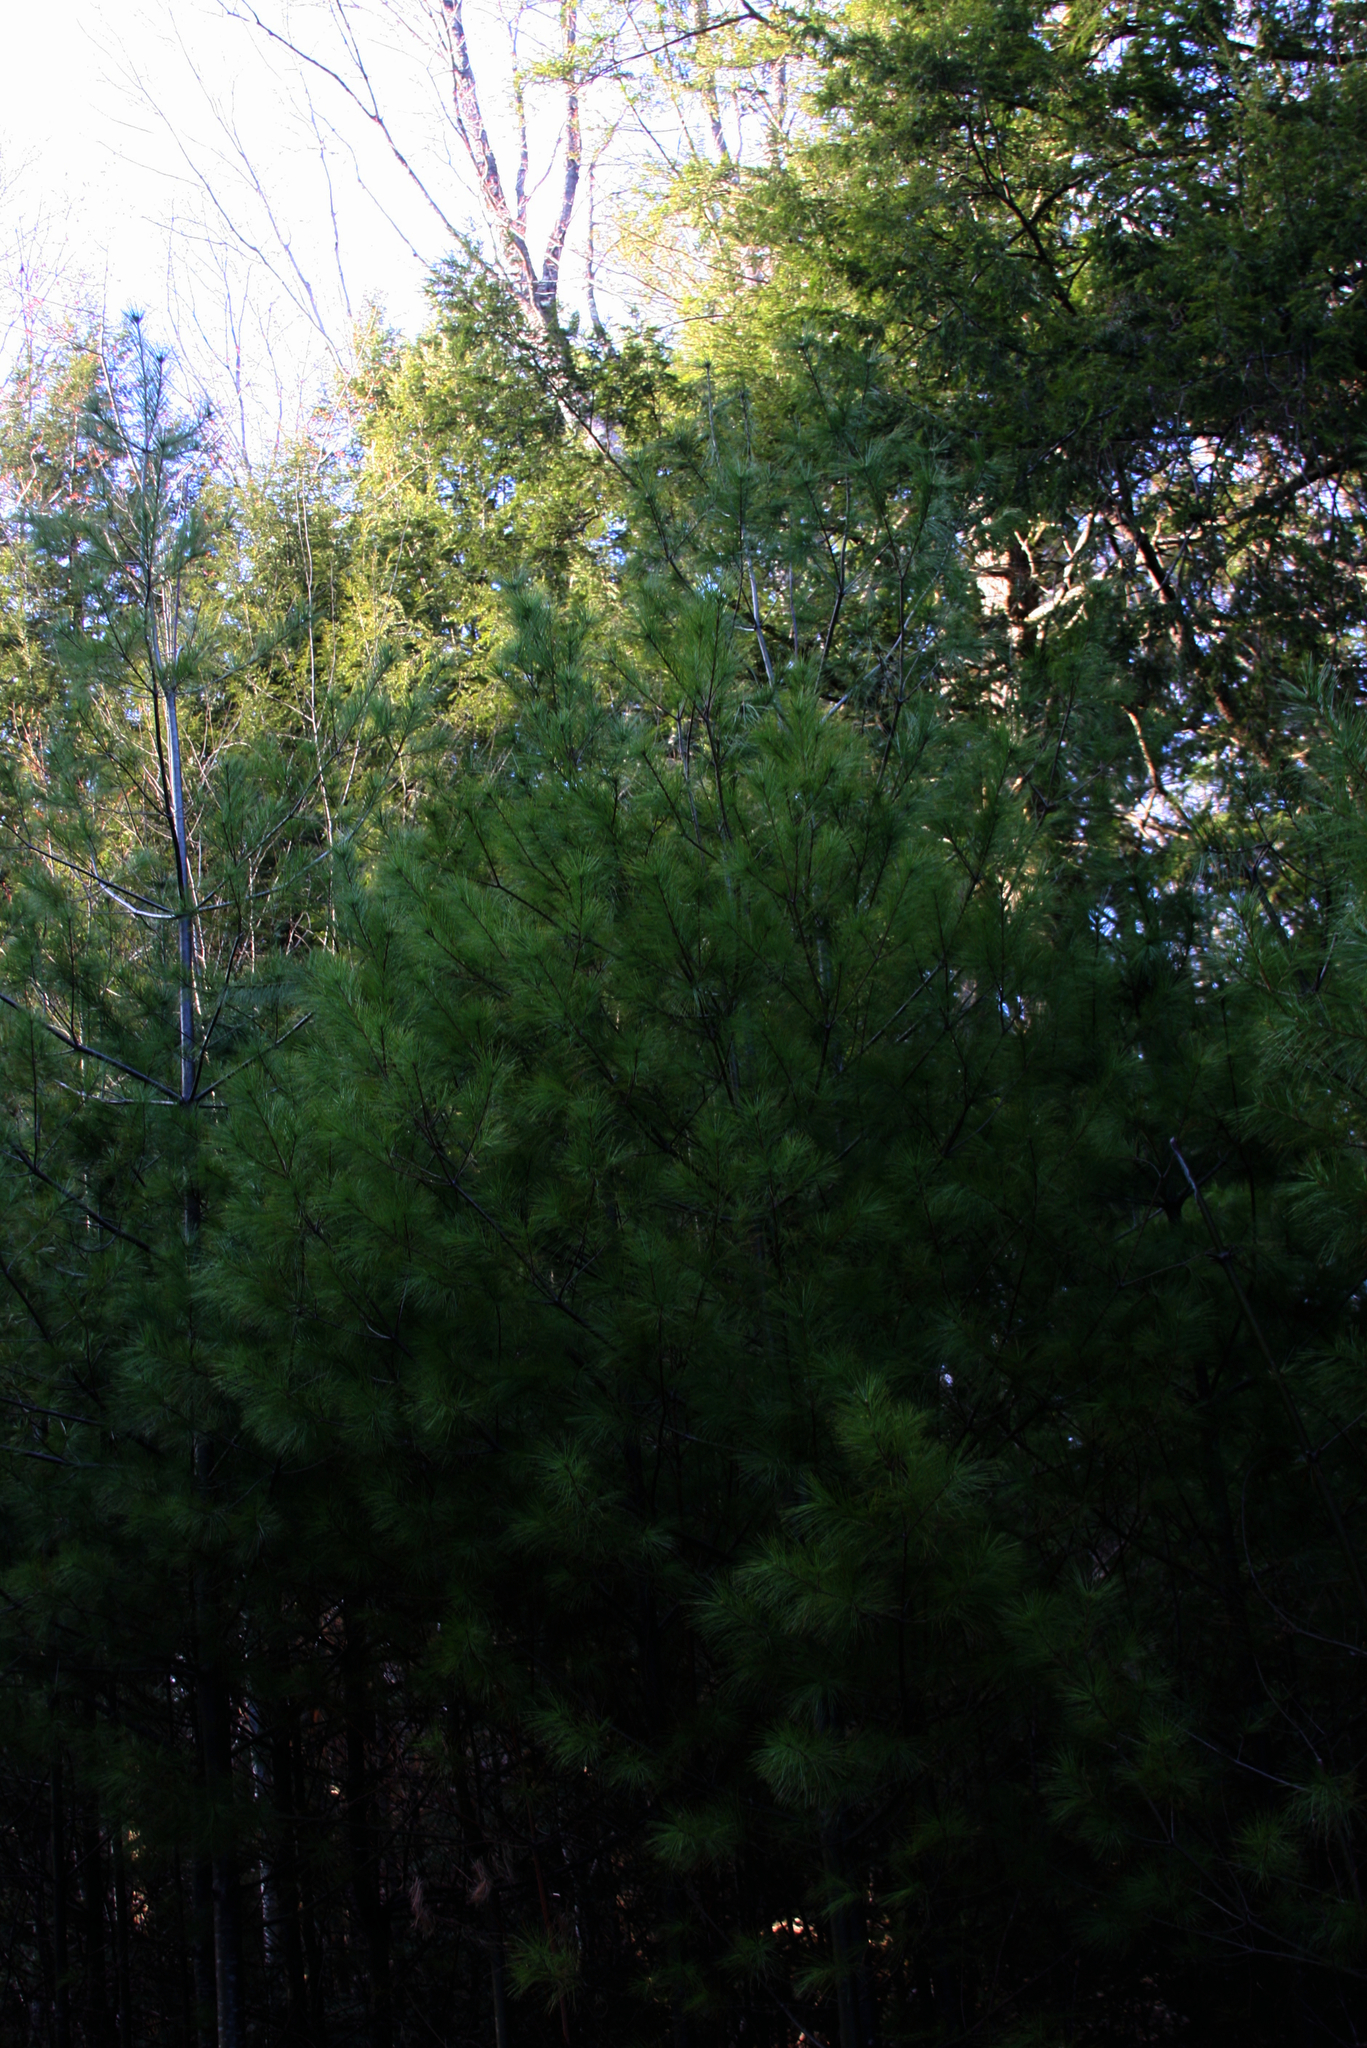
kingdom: Plantae
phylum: Tracheophyta
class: Pinopsida
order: Pinales
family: Pinaceae
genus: Pinus
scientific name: Pinus strobus
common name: Weymouth pine
